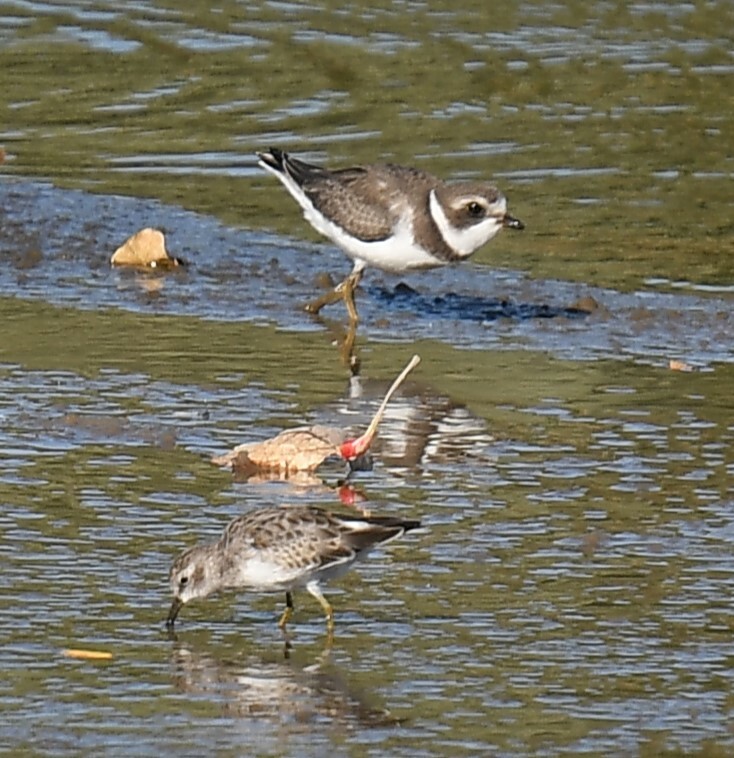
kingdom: Animalia
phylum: Chordata
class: Aves
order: Charadriiformes
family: Charadriidae
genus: Charadrius
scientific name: Charadrius semipalmatus
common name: Semipalmated plover
